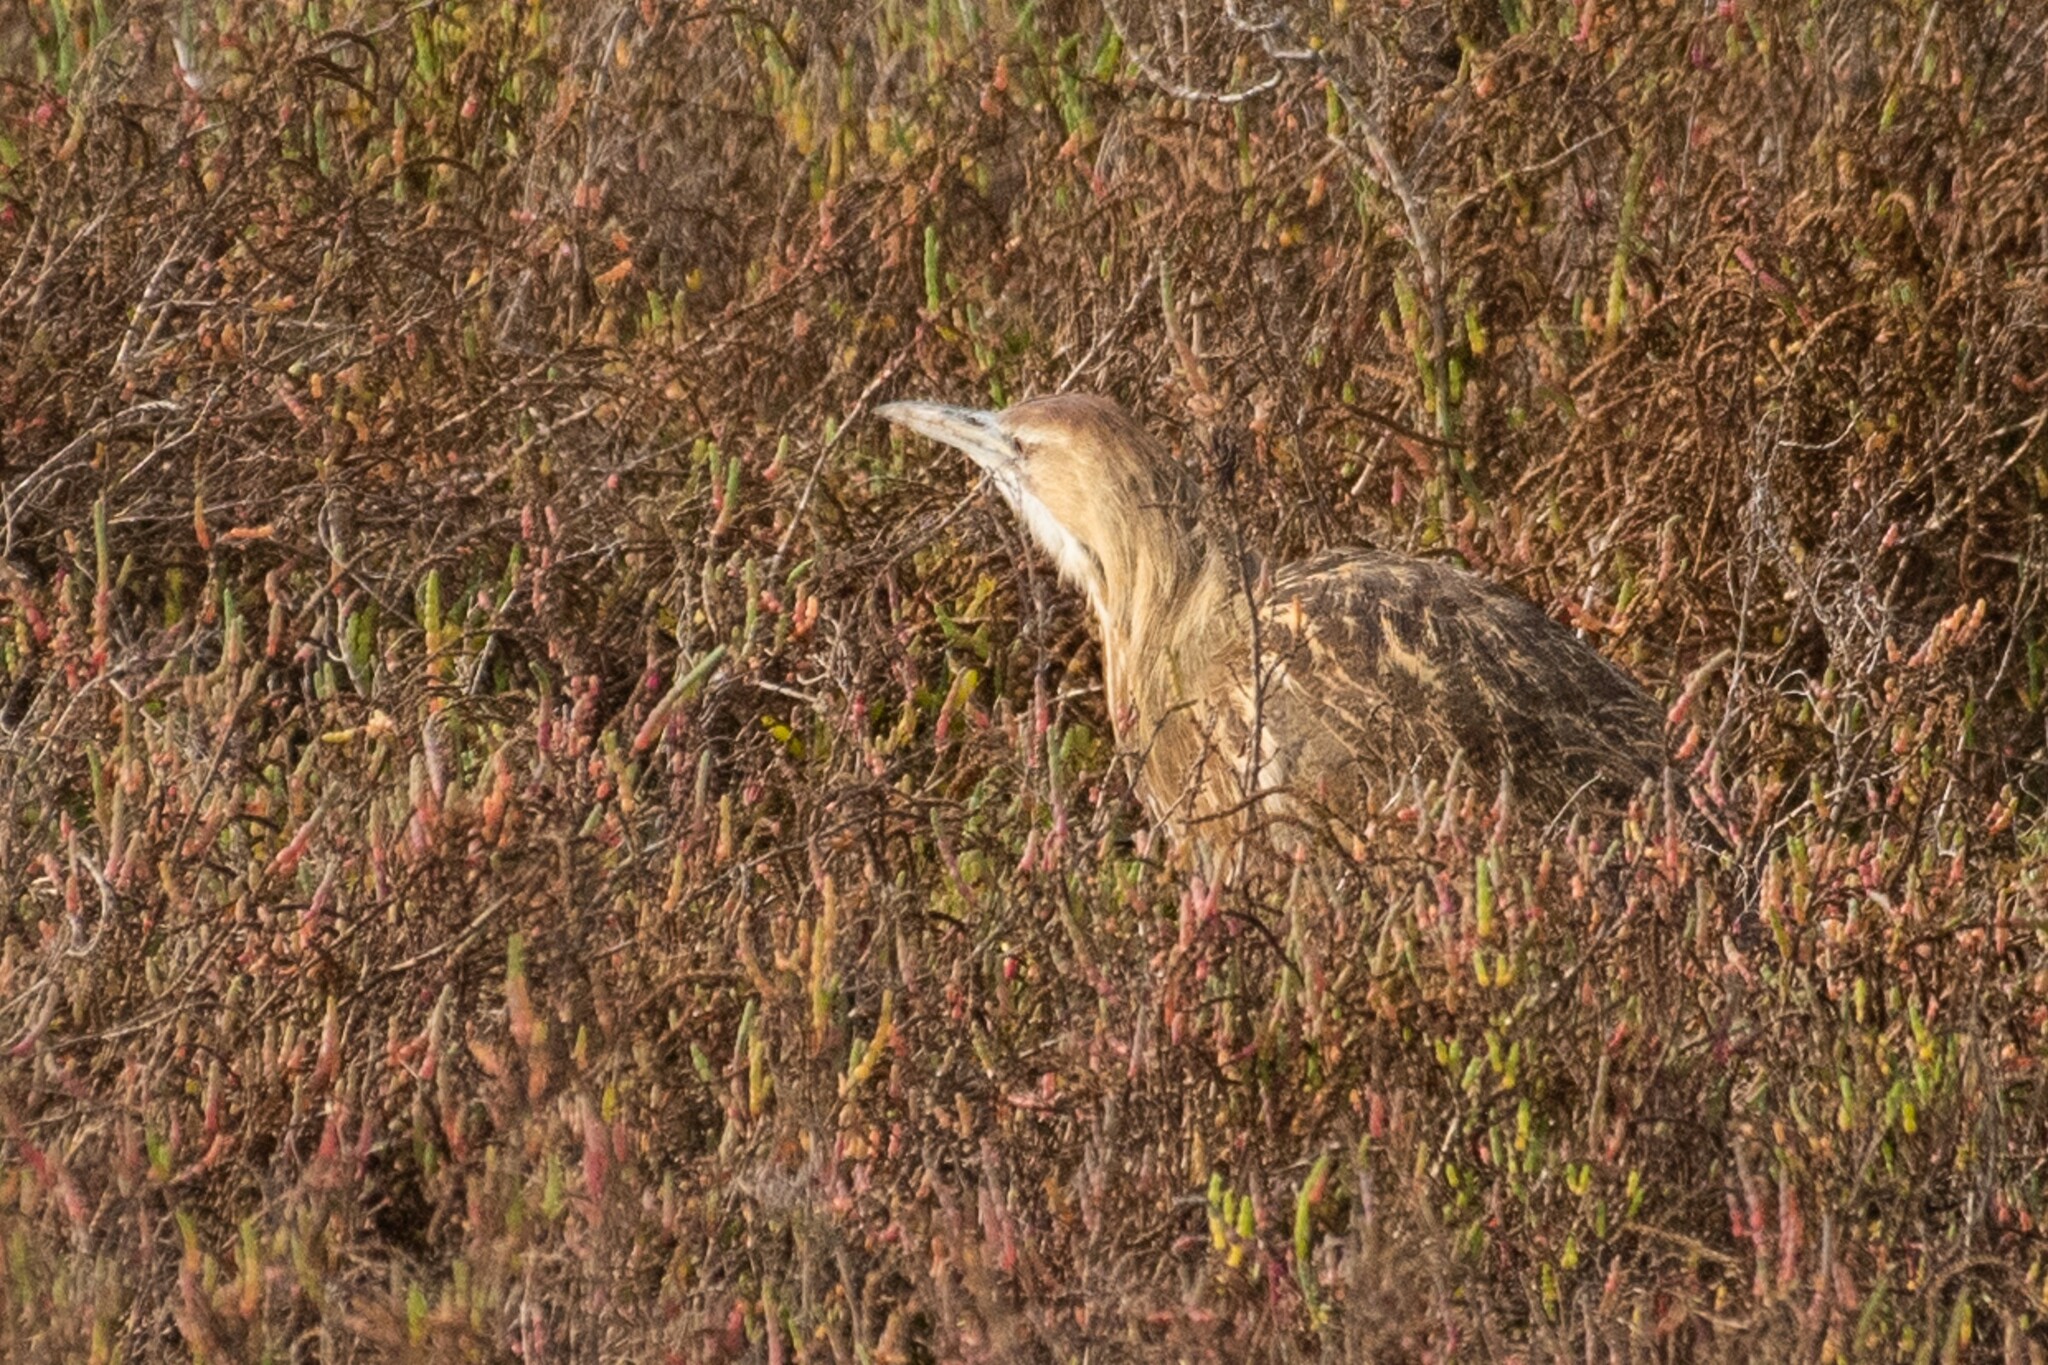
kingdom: Animalia
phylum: Chordata
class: Aves
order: Pelecaniformes
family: Ardeidae
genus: Botaurus
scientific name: Botaurus lentiginosus
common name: American bittern
